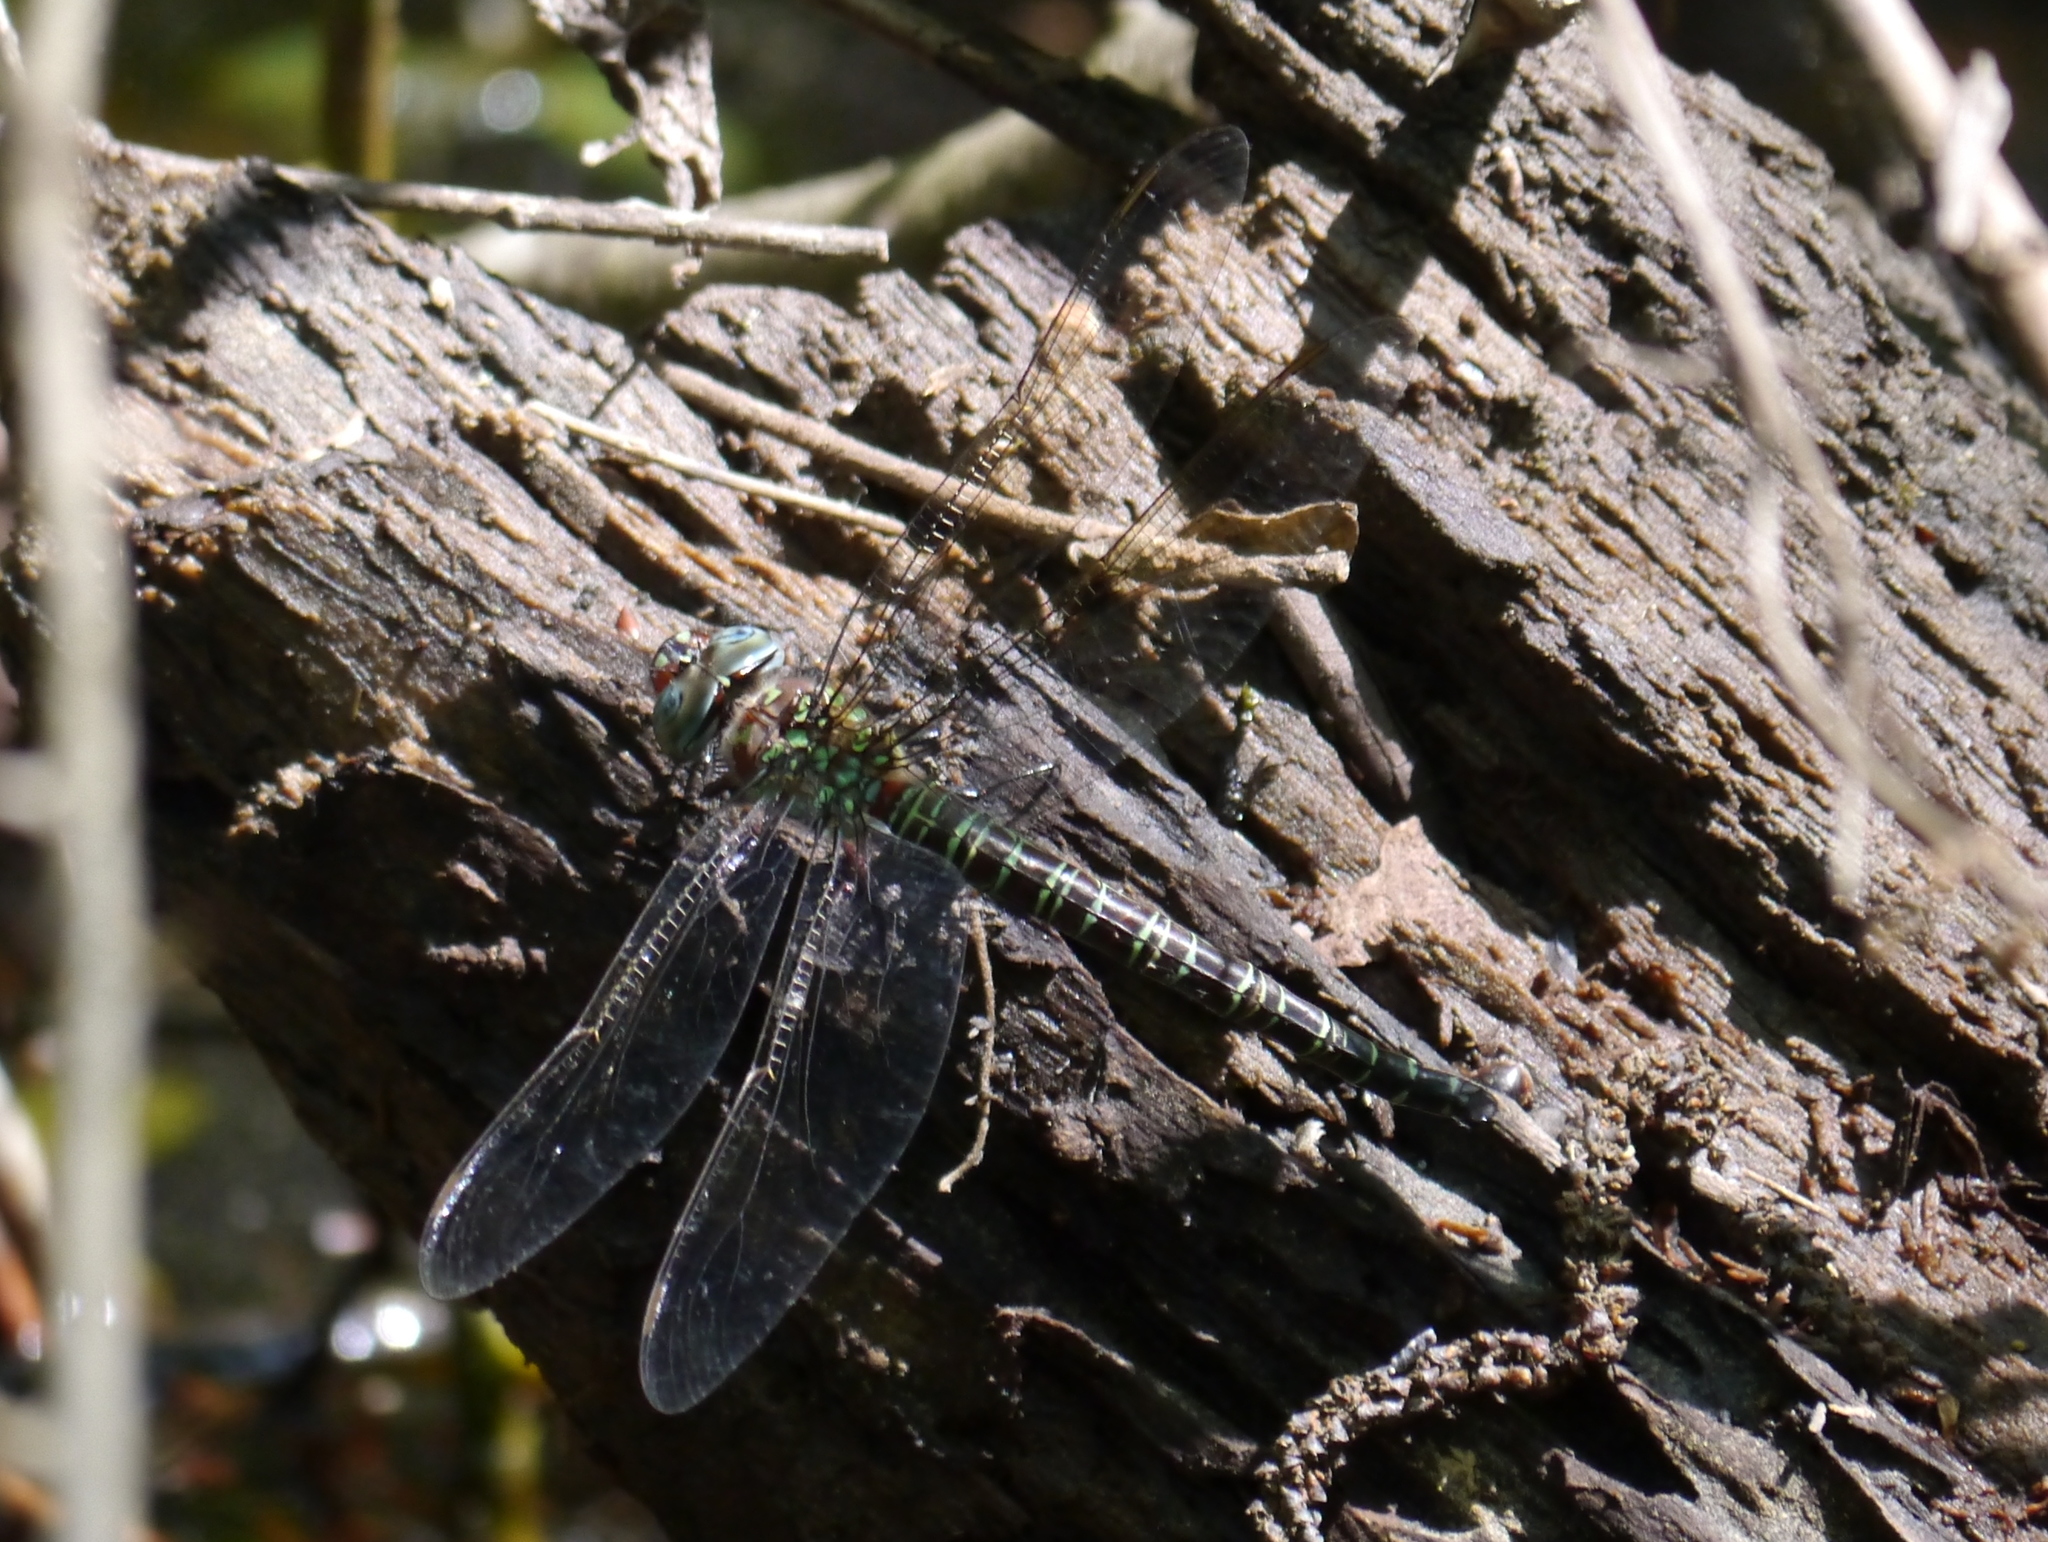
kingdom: Animalia
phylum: Arthropoda
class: Insecta
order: Odonata
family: Aeshnidae
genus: Epiaeschna
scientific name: Epiaeschna heros
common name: Swamp darner
